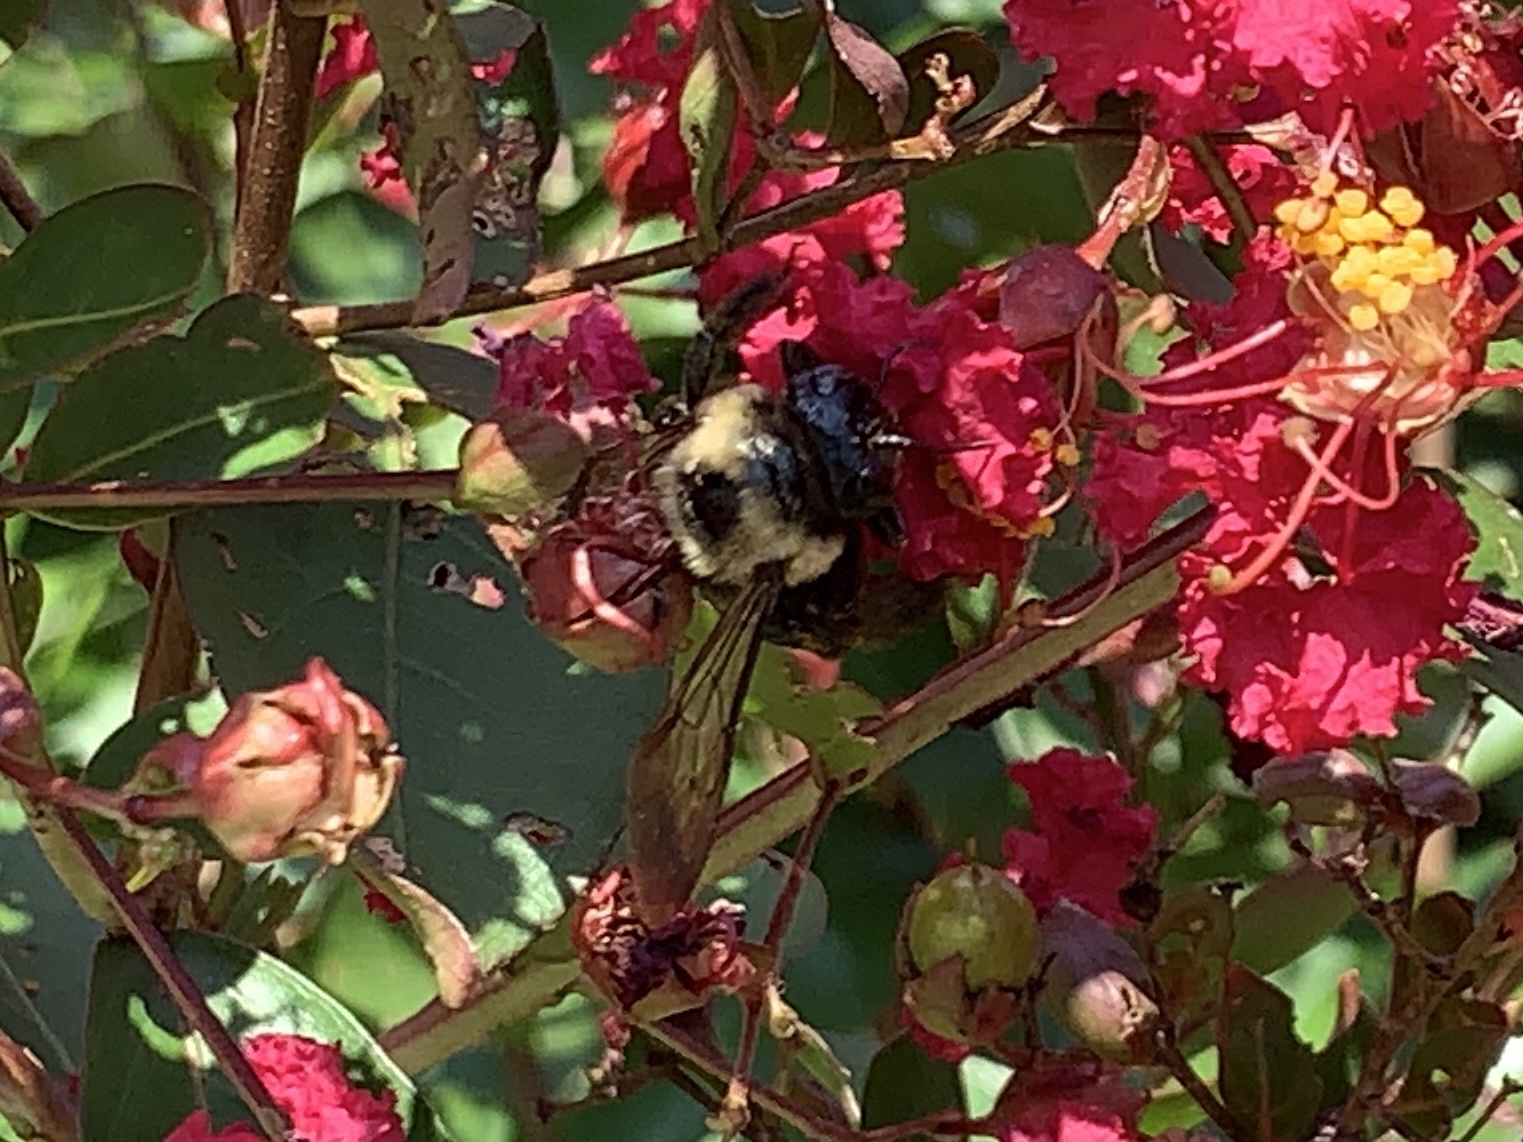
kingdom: Animalia
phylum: Arthropoda
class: Insecta
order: Hymenoptera
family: Apidae
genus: Xylocopa
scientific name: Xylocopa virginica
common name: Carpenter bee
